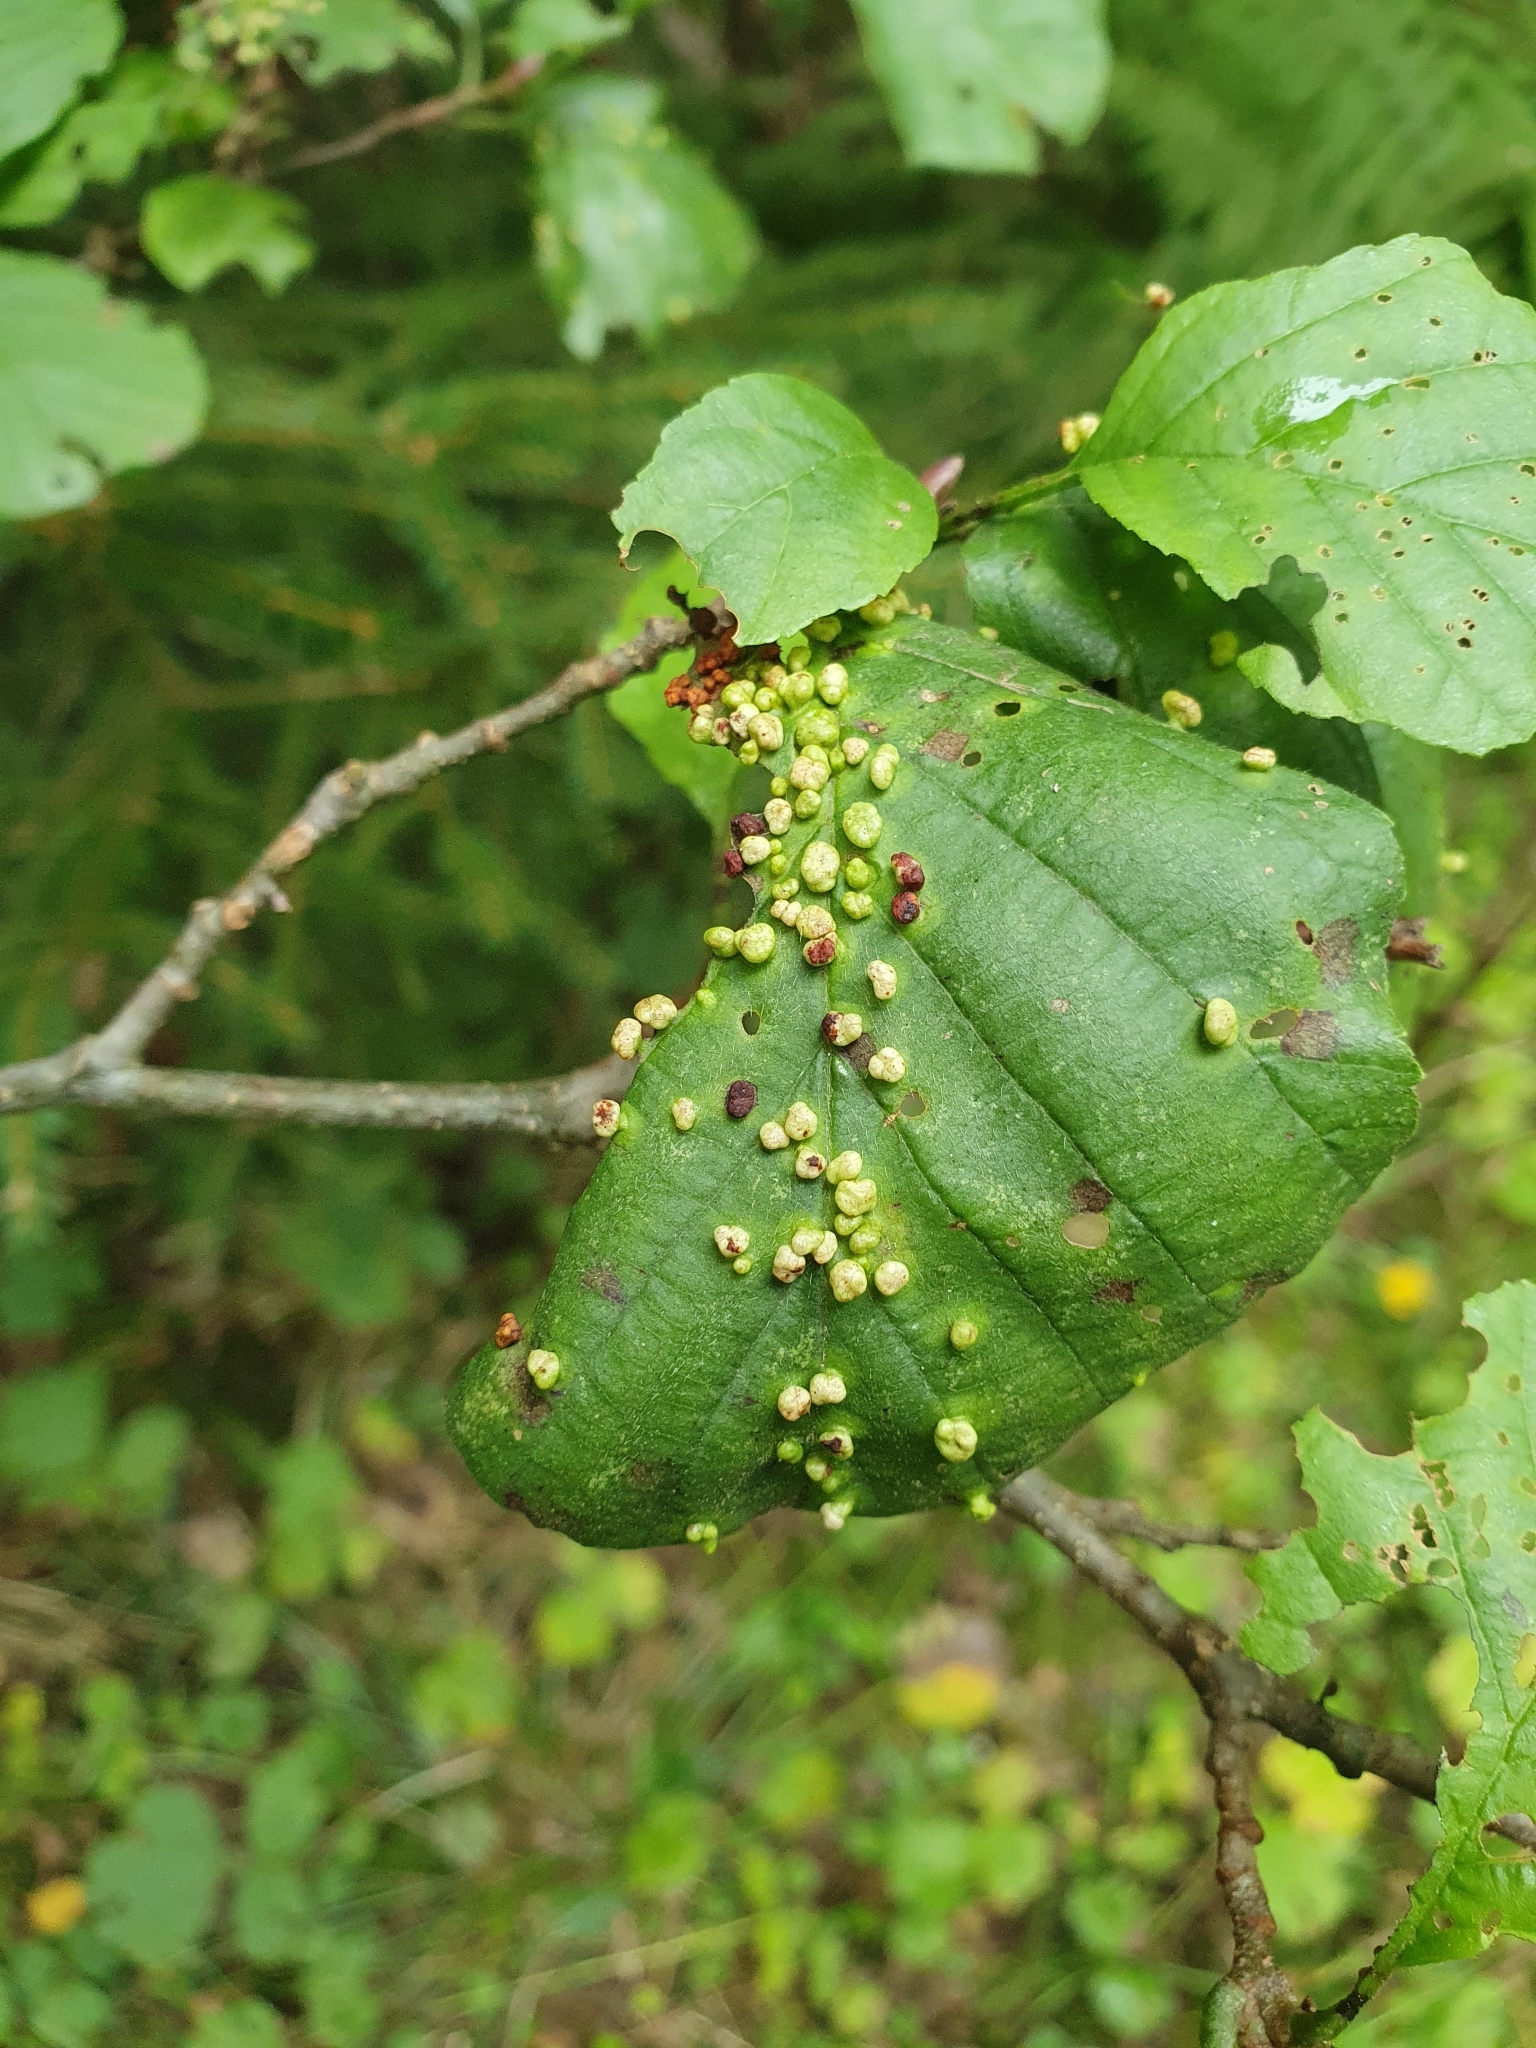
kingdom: Animalia
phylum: Arthropoda
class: Arachnida
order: Trombidiformes
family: Eriophyidae
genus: Eriophyes
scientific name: Eriophyes laevis
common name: Alder leaf gall mite
